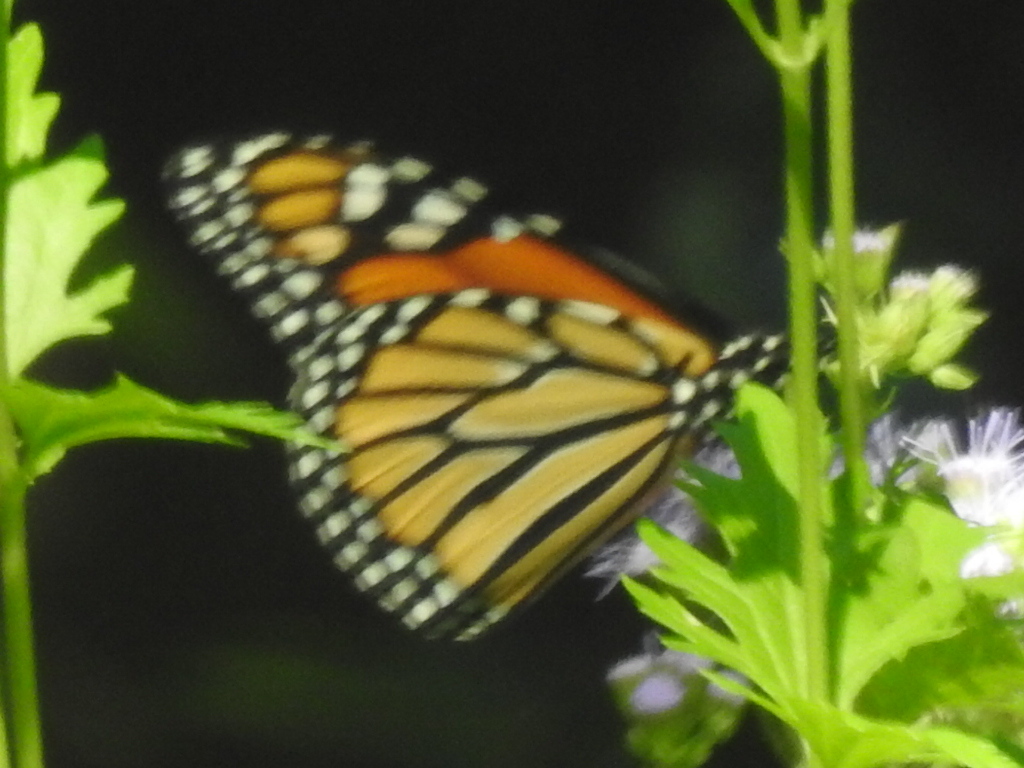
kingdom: Animalia
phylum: Arthropoda
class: Insecta
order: Lepidoptera
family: Nymphalidae
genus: Danaus
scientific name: Danaus plexippus
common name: Monarch
